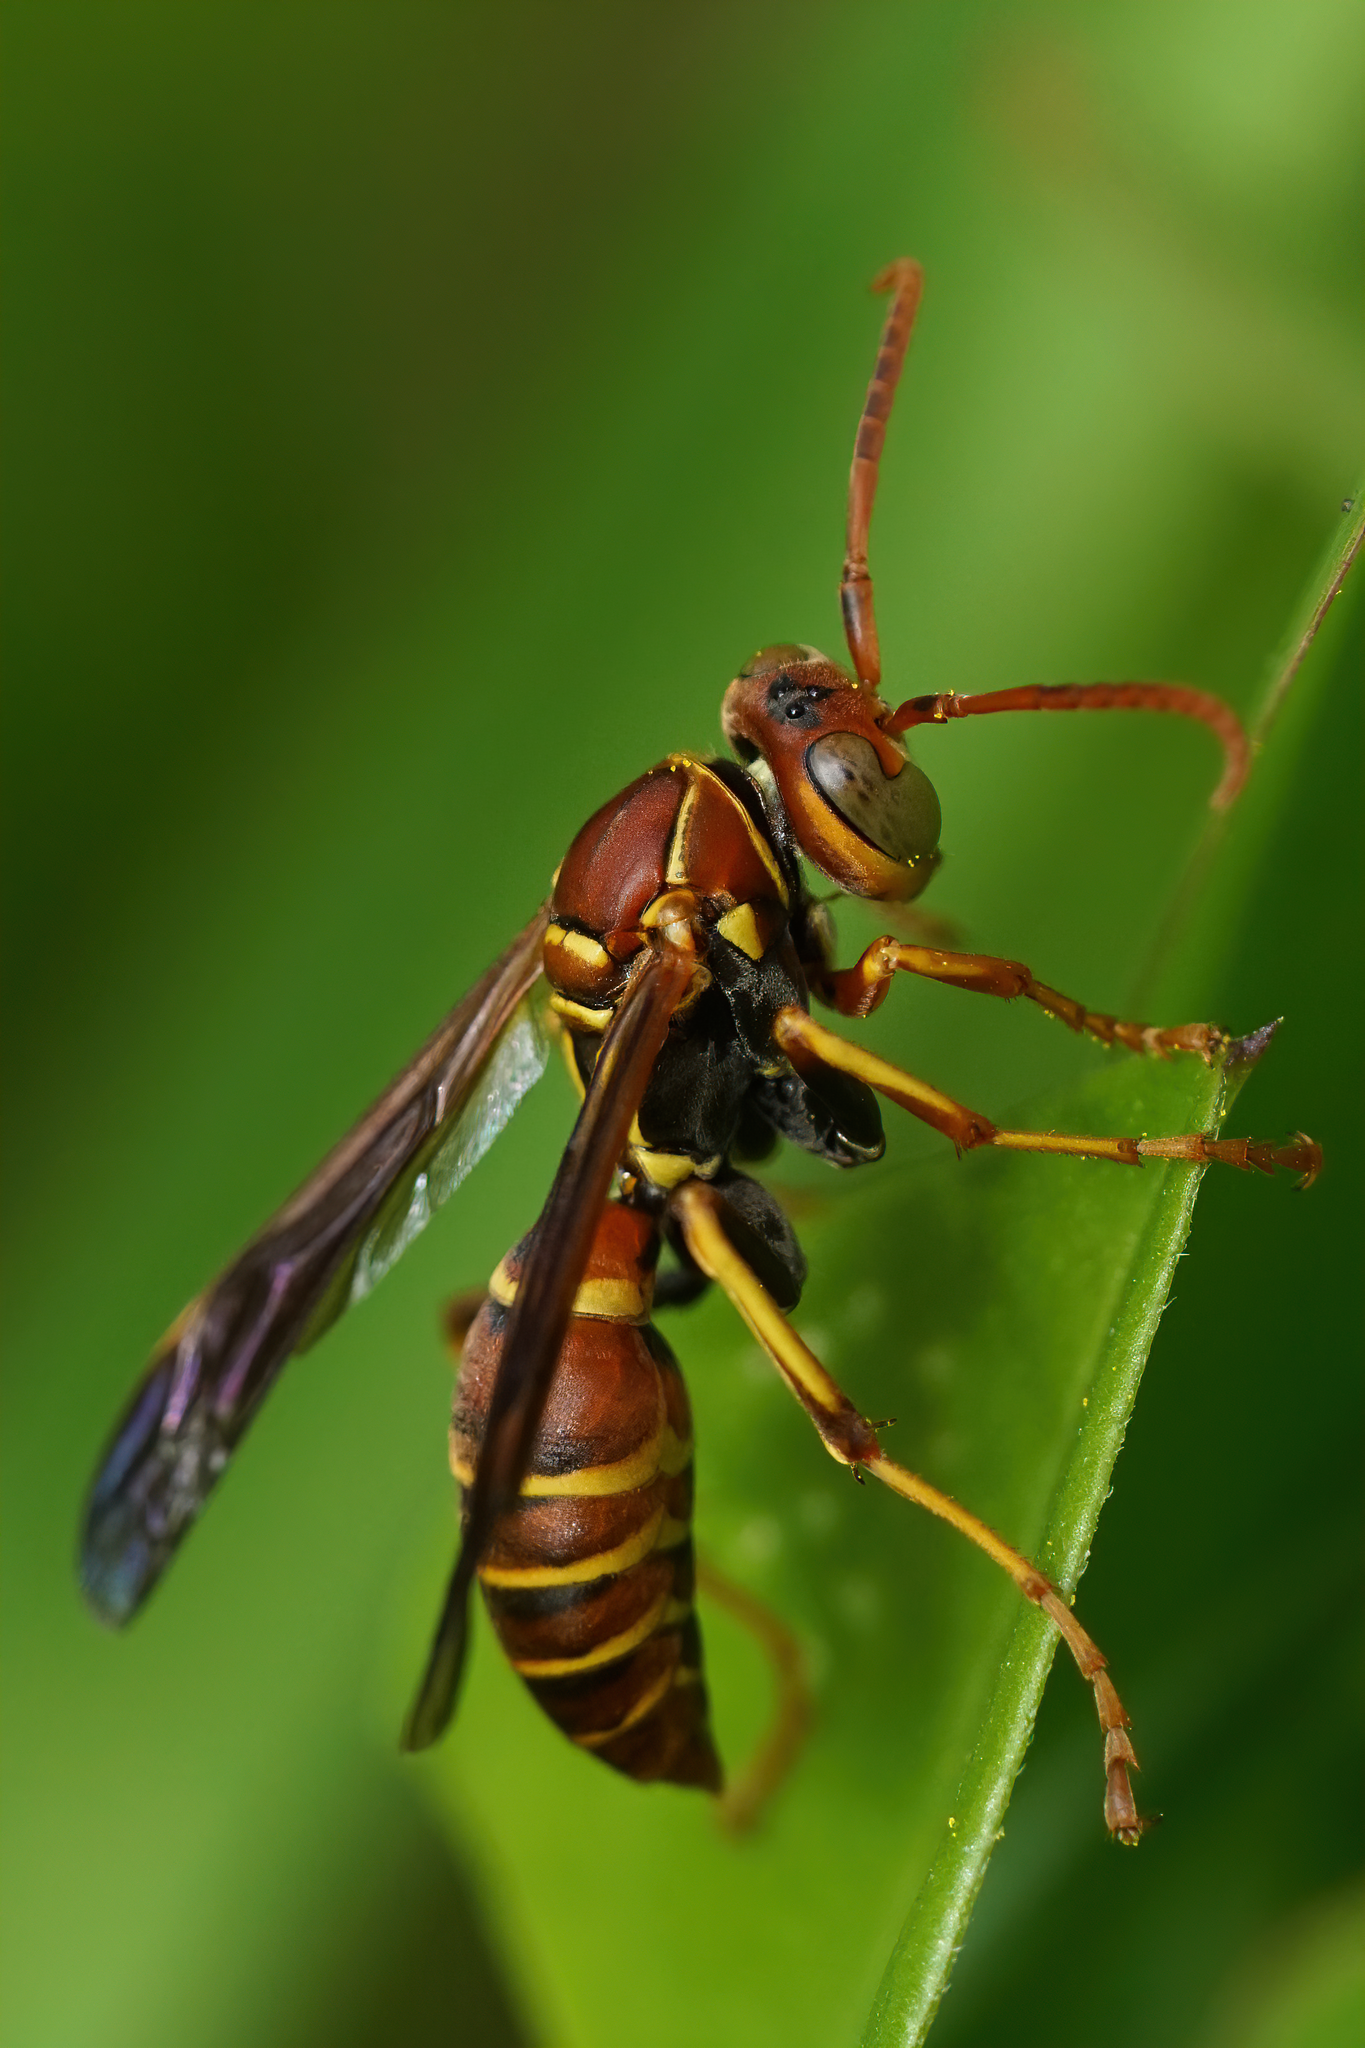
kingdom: Animalia
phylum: Arthropoda
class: Insecta
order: Hymenoptera
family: Eumenidae
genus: Polistes
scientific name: Polistes dorsalis
